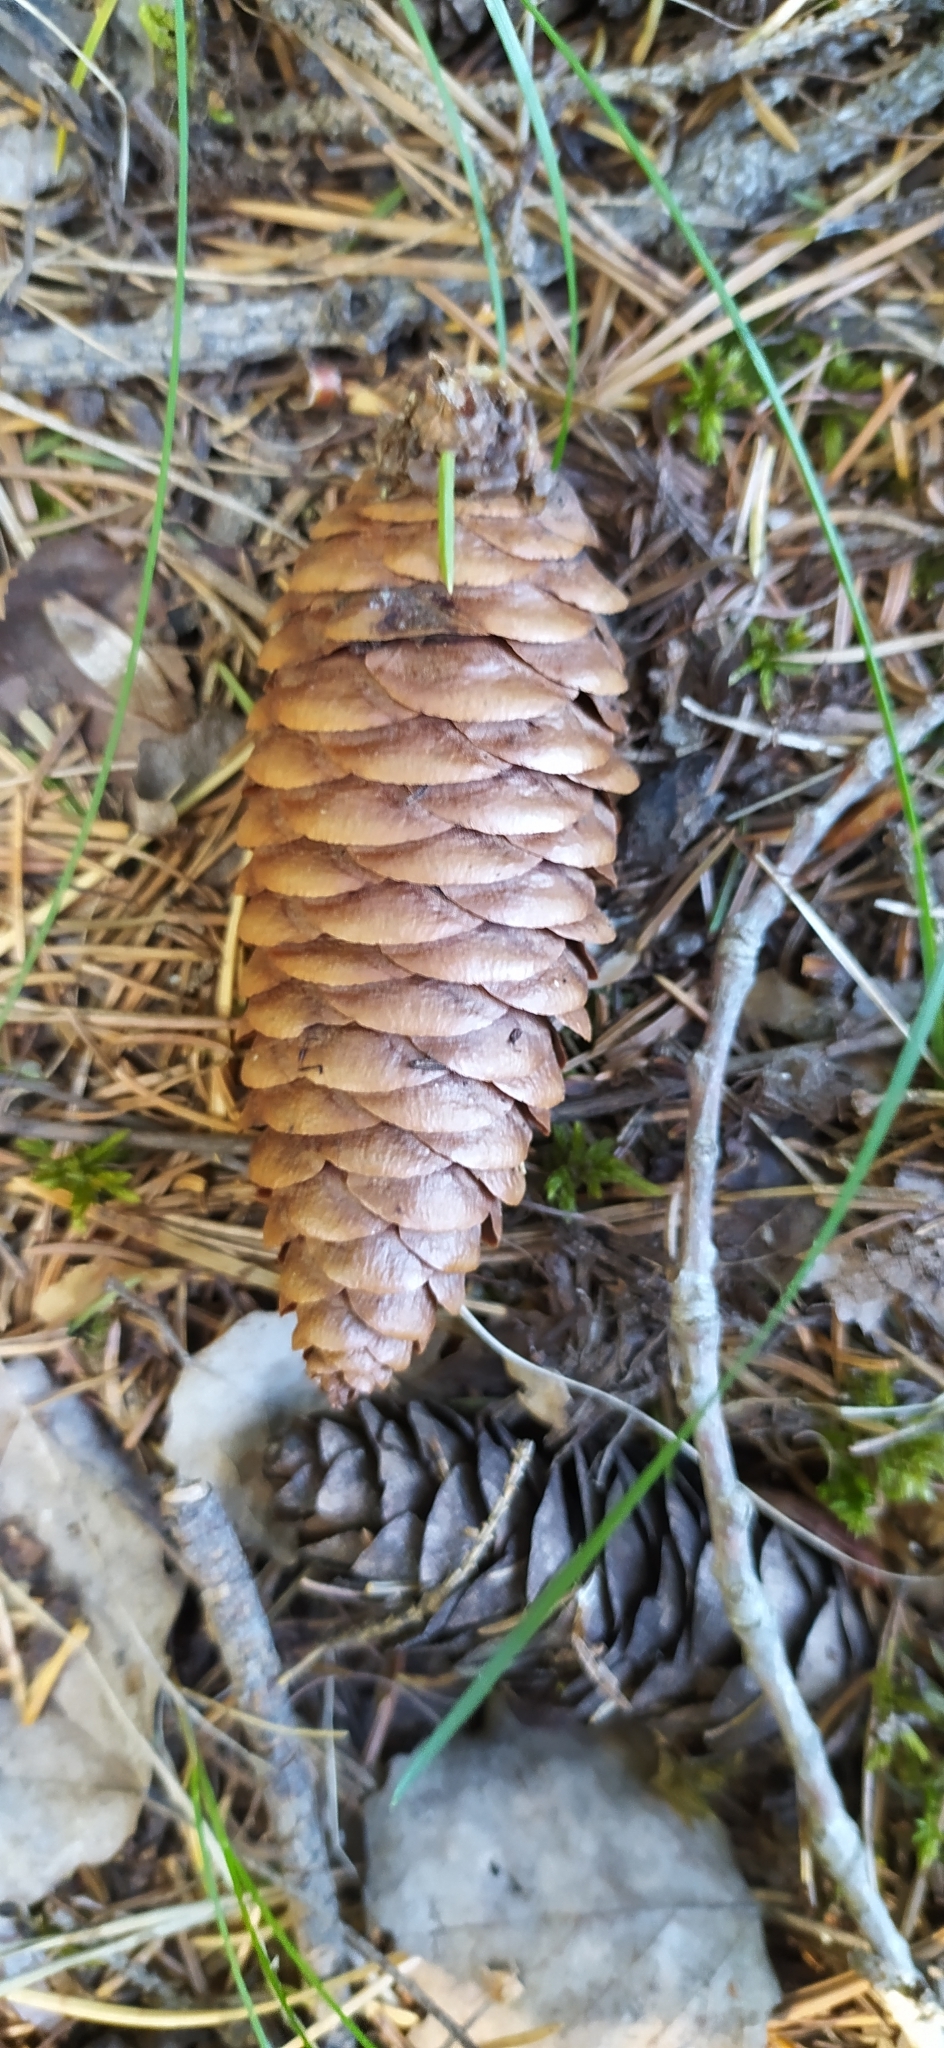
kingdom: Plantae
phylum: Tracheophyta
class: Pinopsida
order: Pinales
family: Pinaceae
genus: Picea
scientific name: Picea obovata
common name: Siberian spruce
